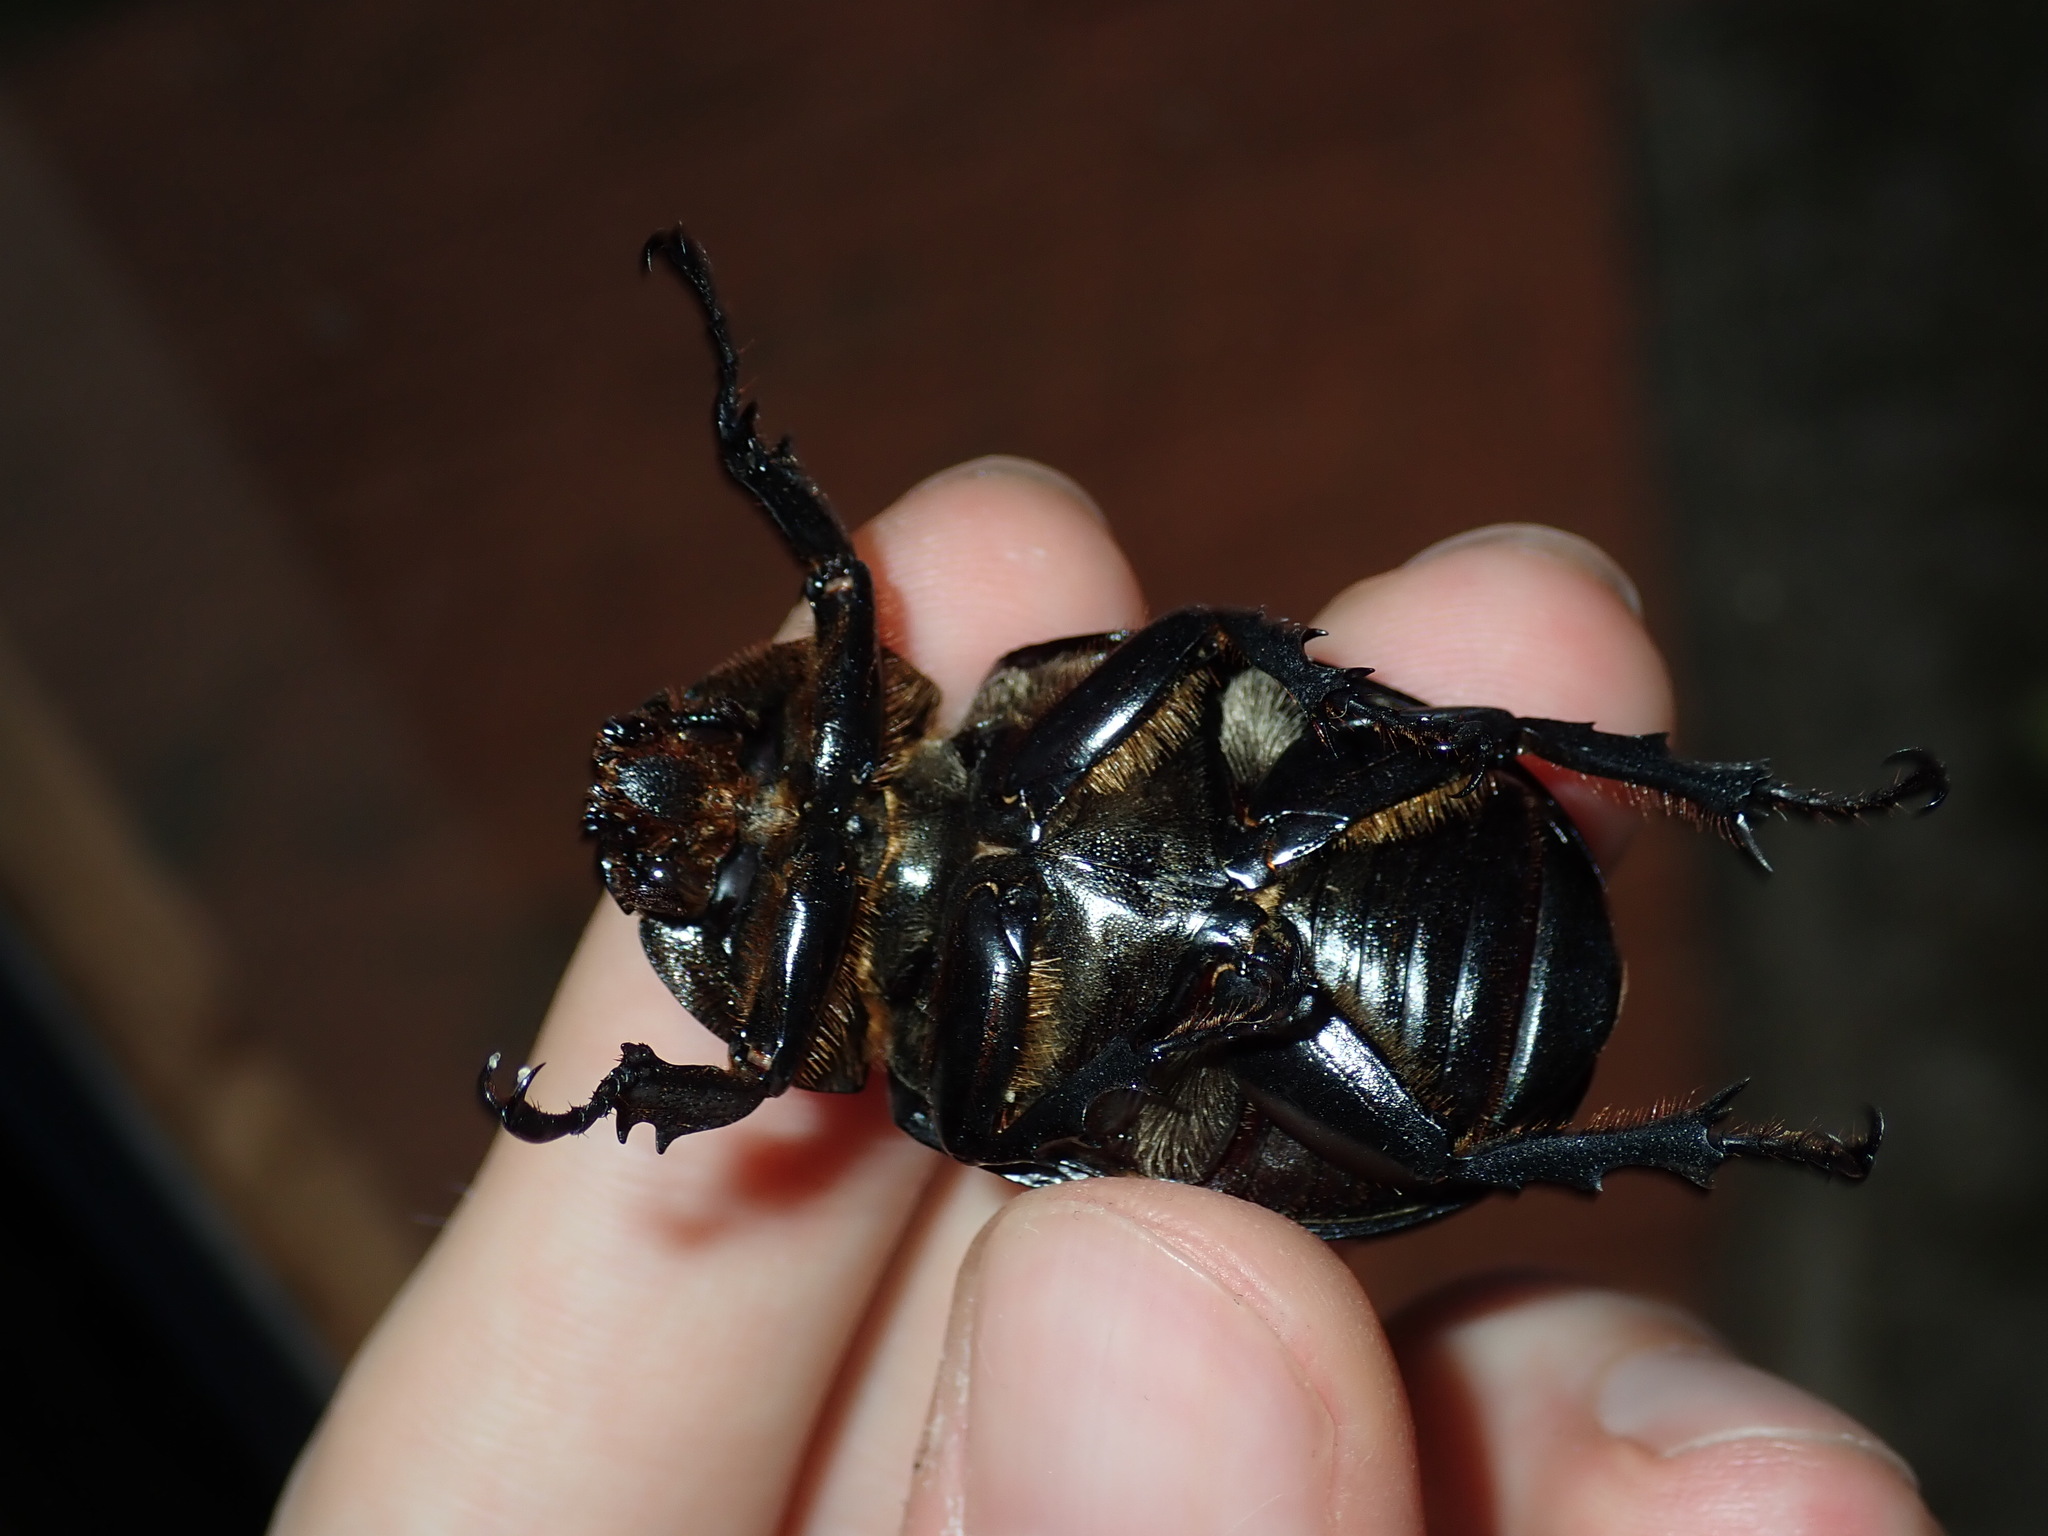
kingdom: Animalia
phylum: Arthropoda
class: Insecta
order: Coleoptera
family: Scarabaeidae
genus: Xylotrupes
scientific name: Xylotrupes australicus
